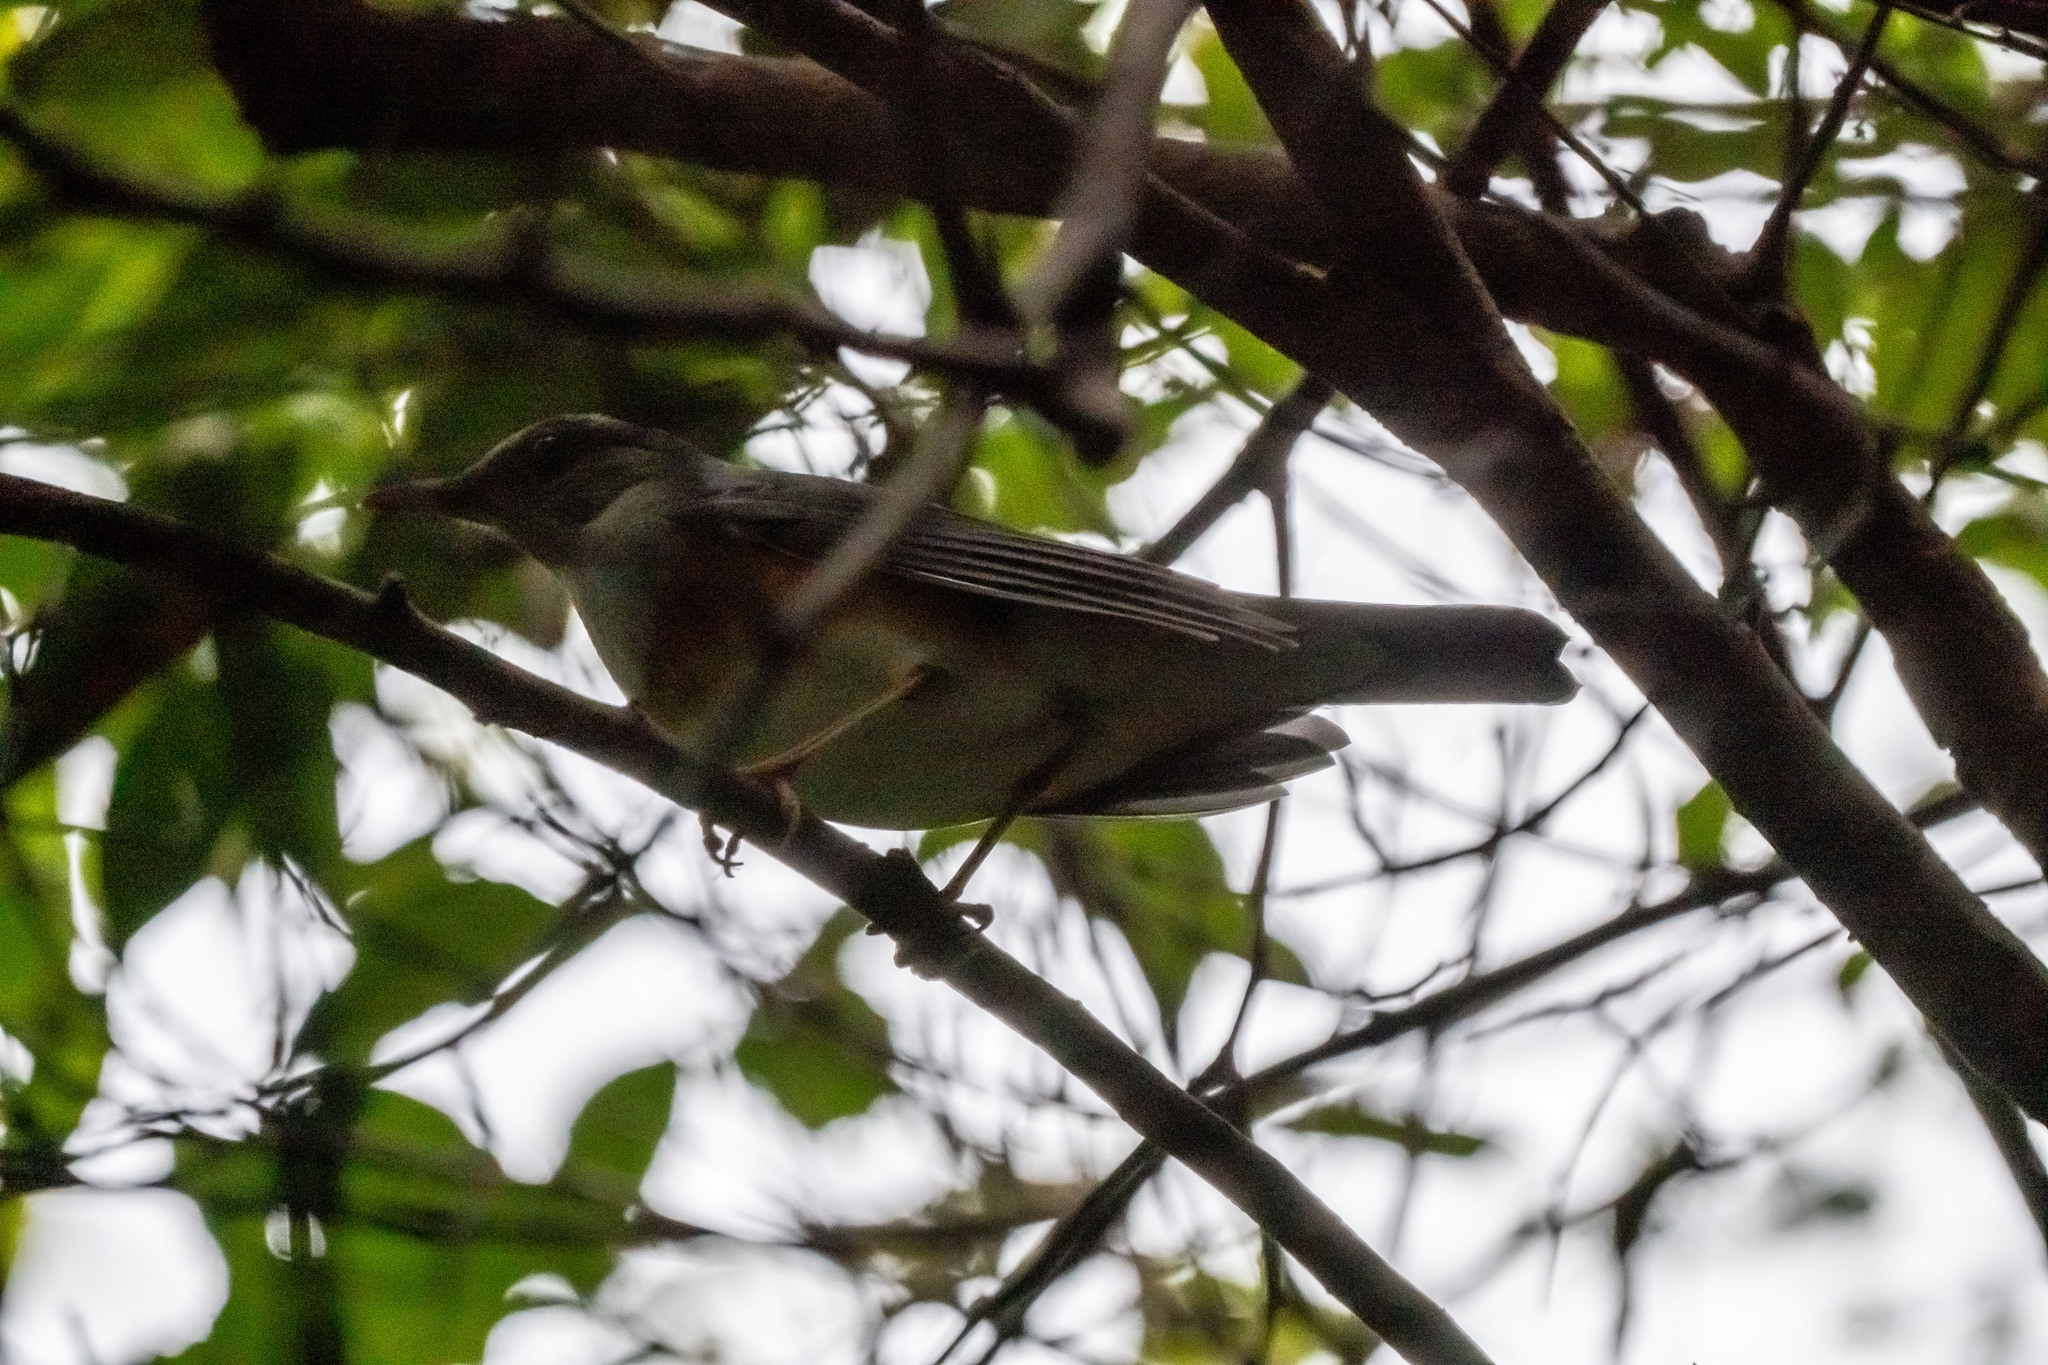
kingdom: Animalia
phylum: Chordata
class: Aves
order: Passeriformes
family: Turdidae
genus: Turdus
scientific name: Turdus hortulorum
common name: Grey-backed thrush
